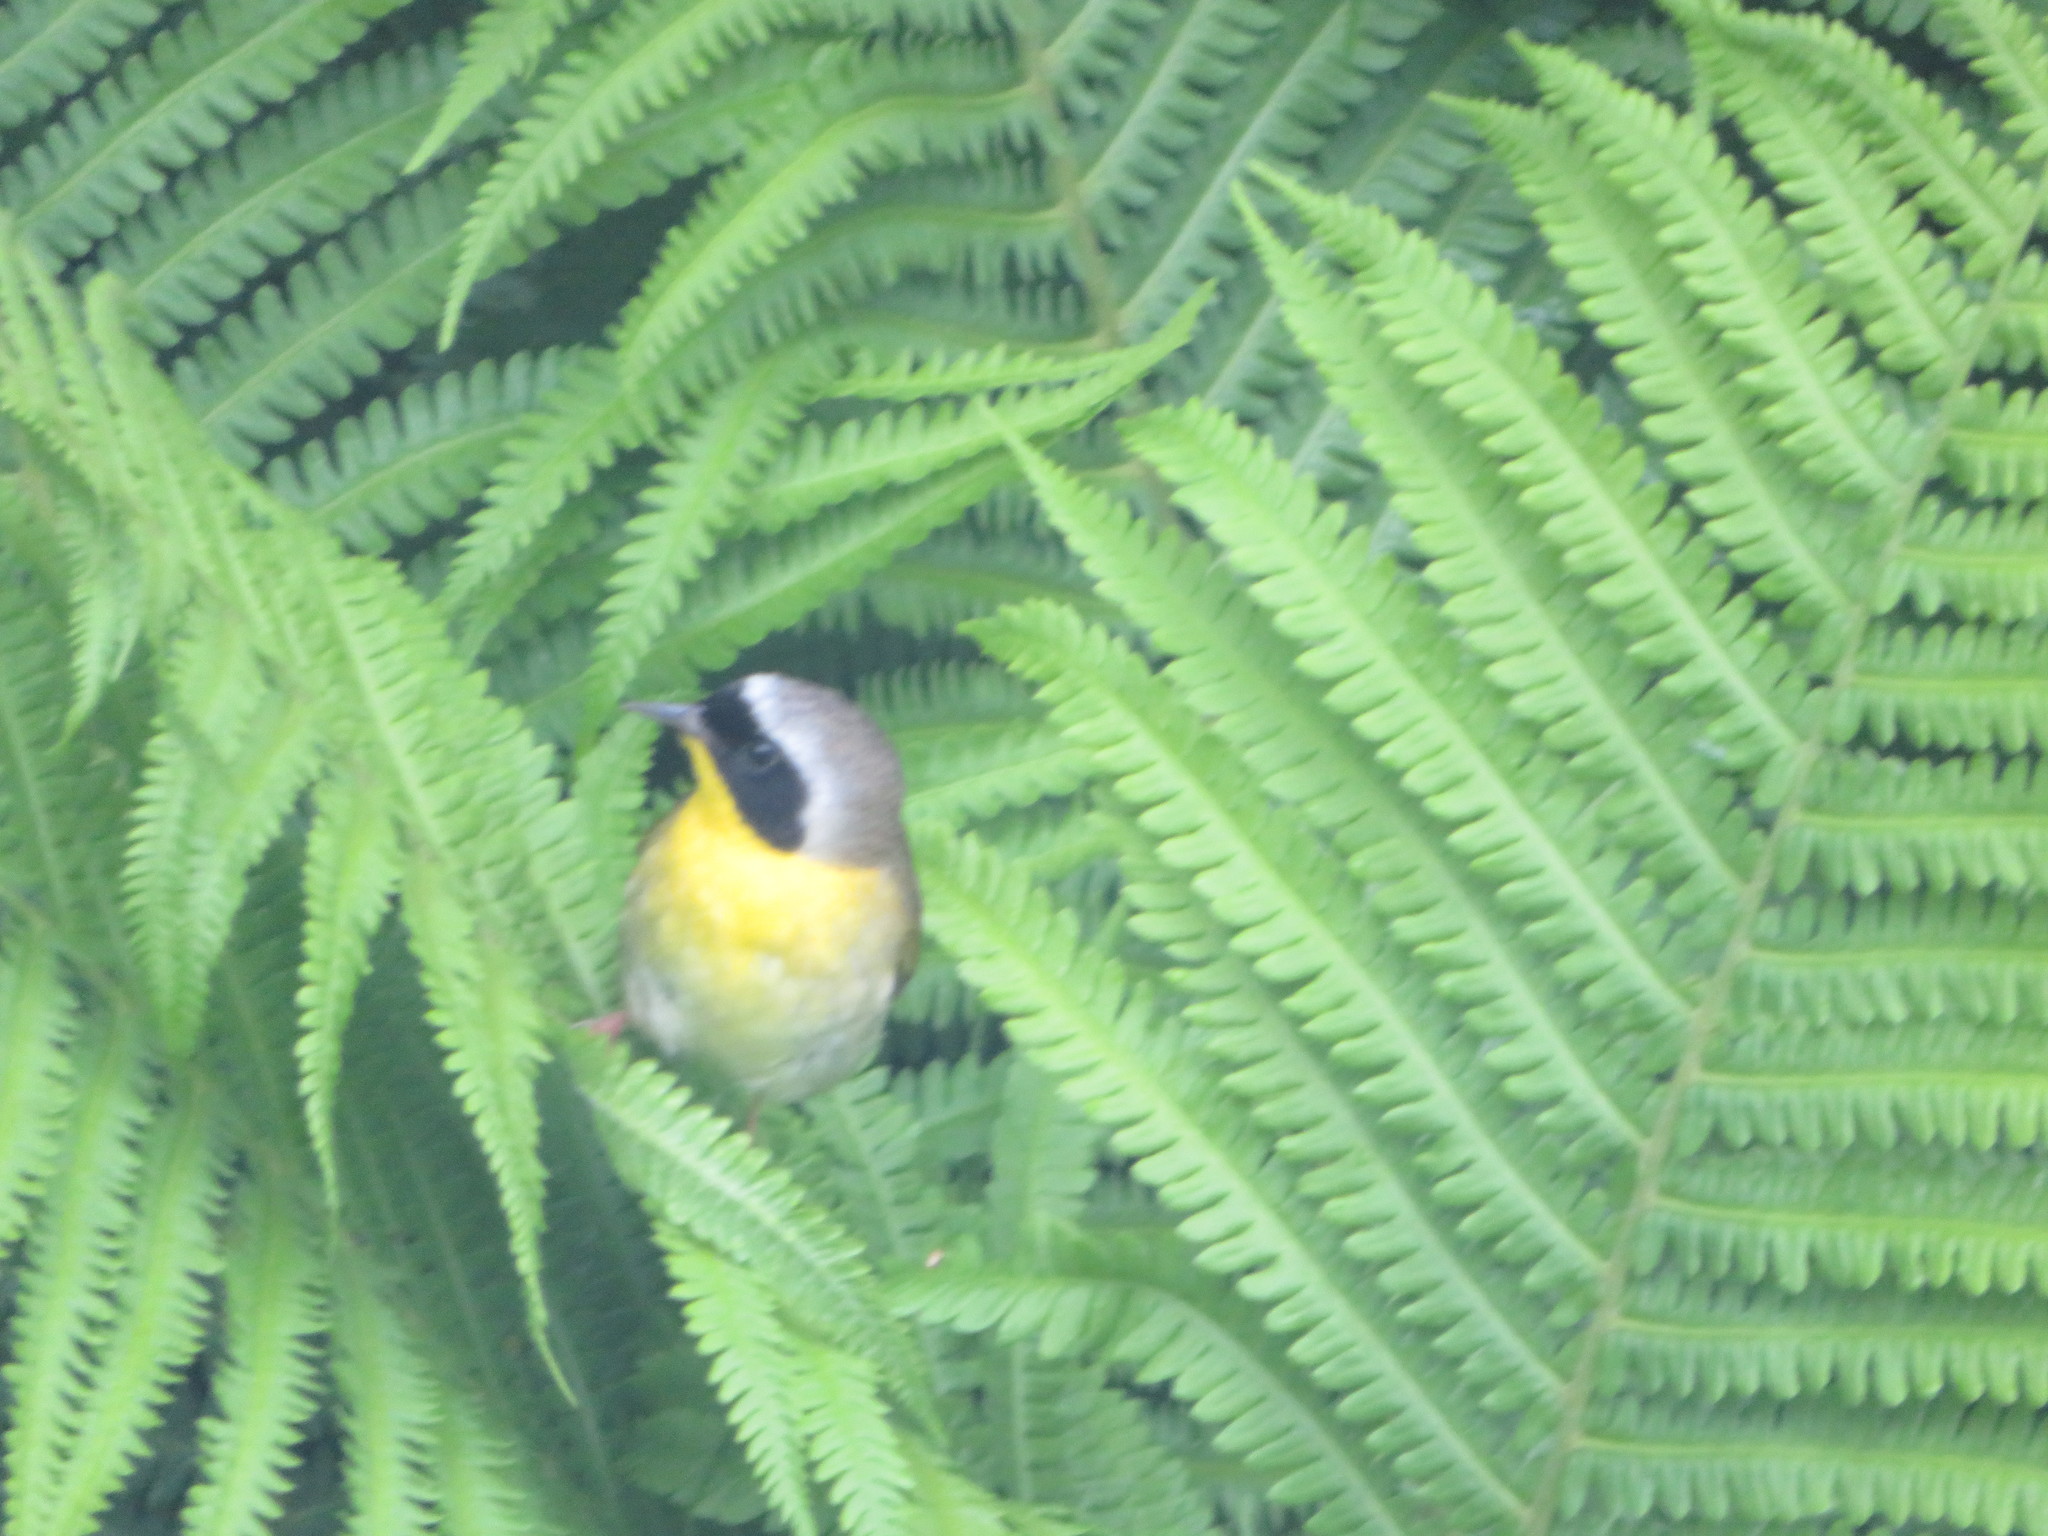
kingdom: Animalia
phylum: Chordata
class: Aves
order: Passeriformes
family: Parulidae
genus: Geothlypis
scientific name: Geothlypis trichas
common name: Common yellowthroat
